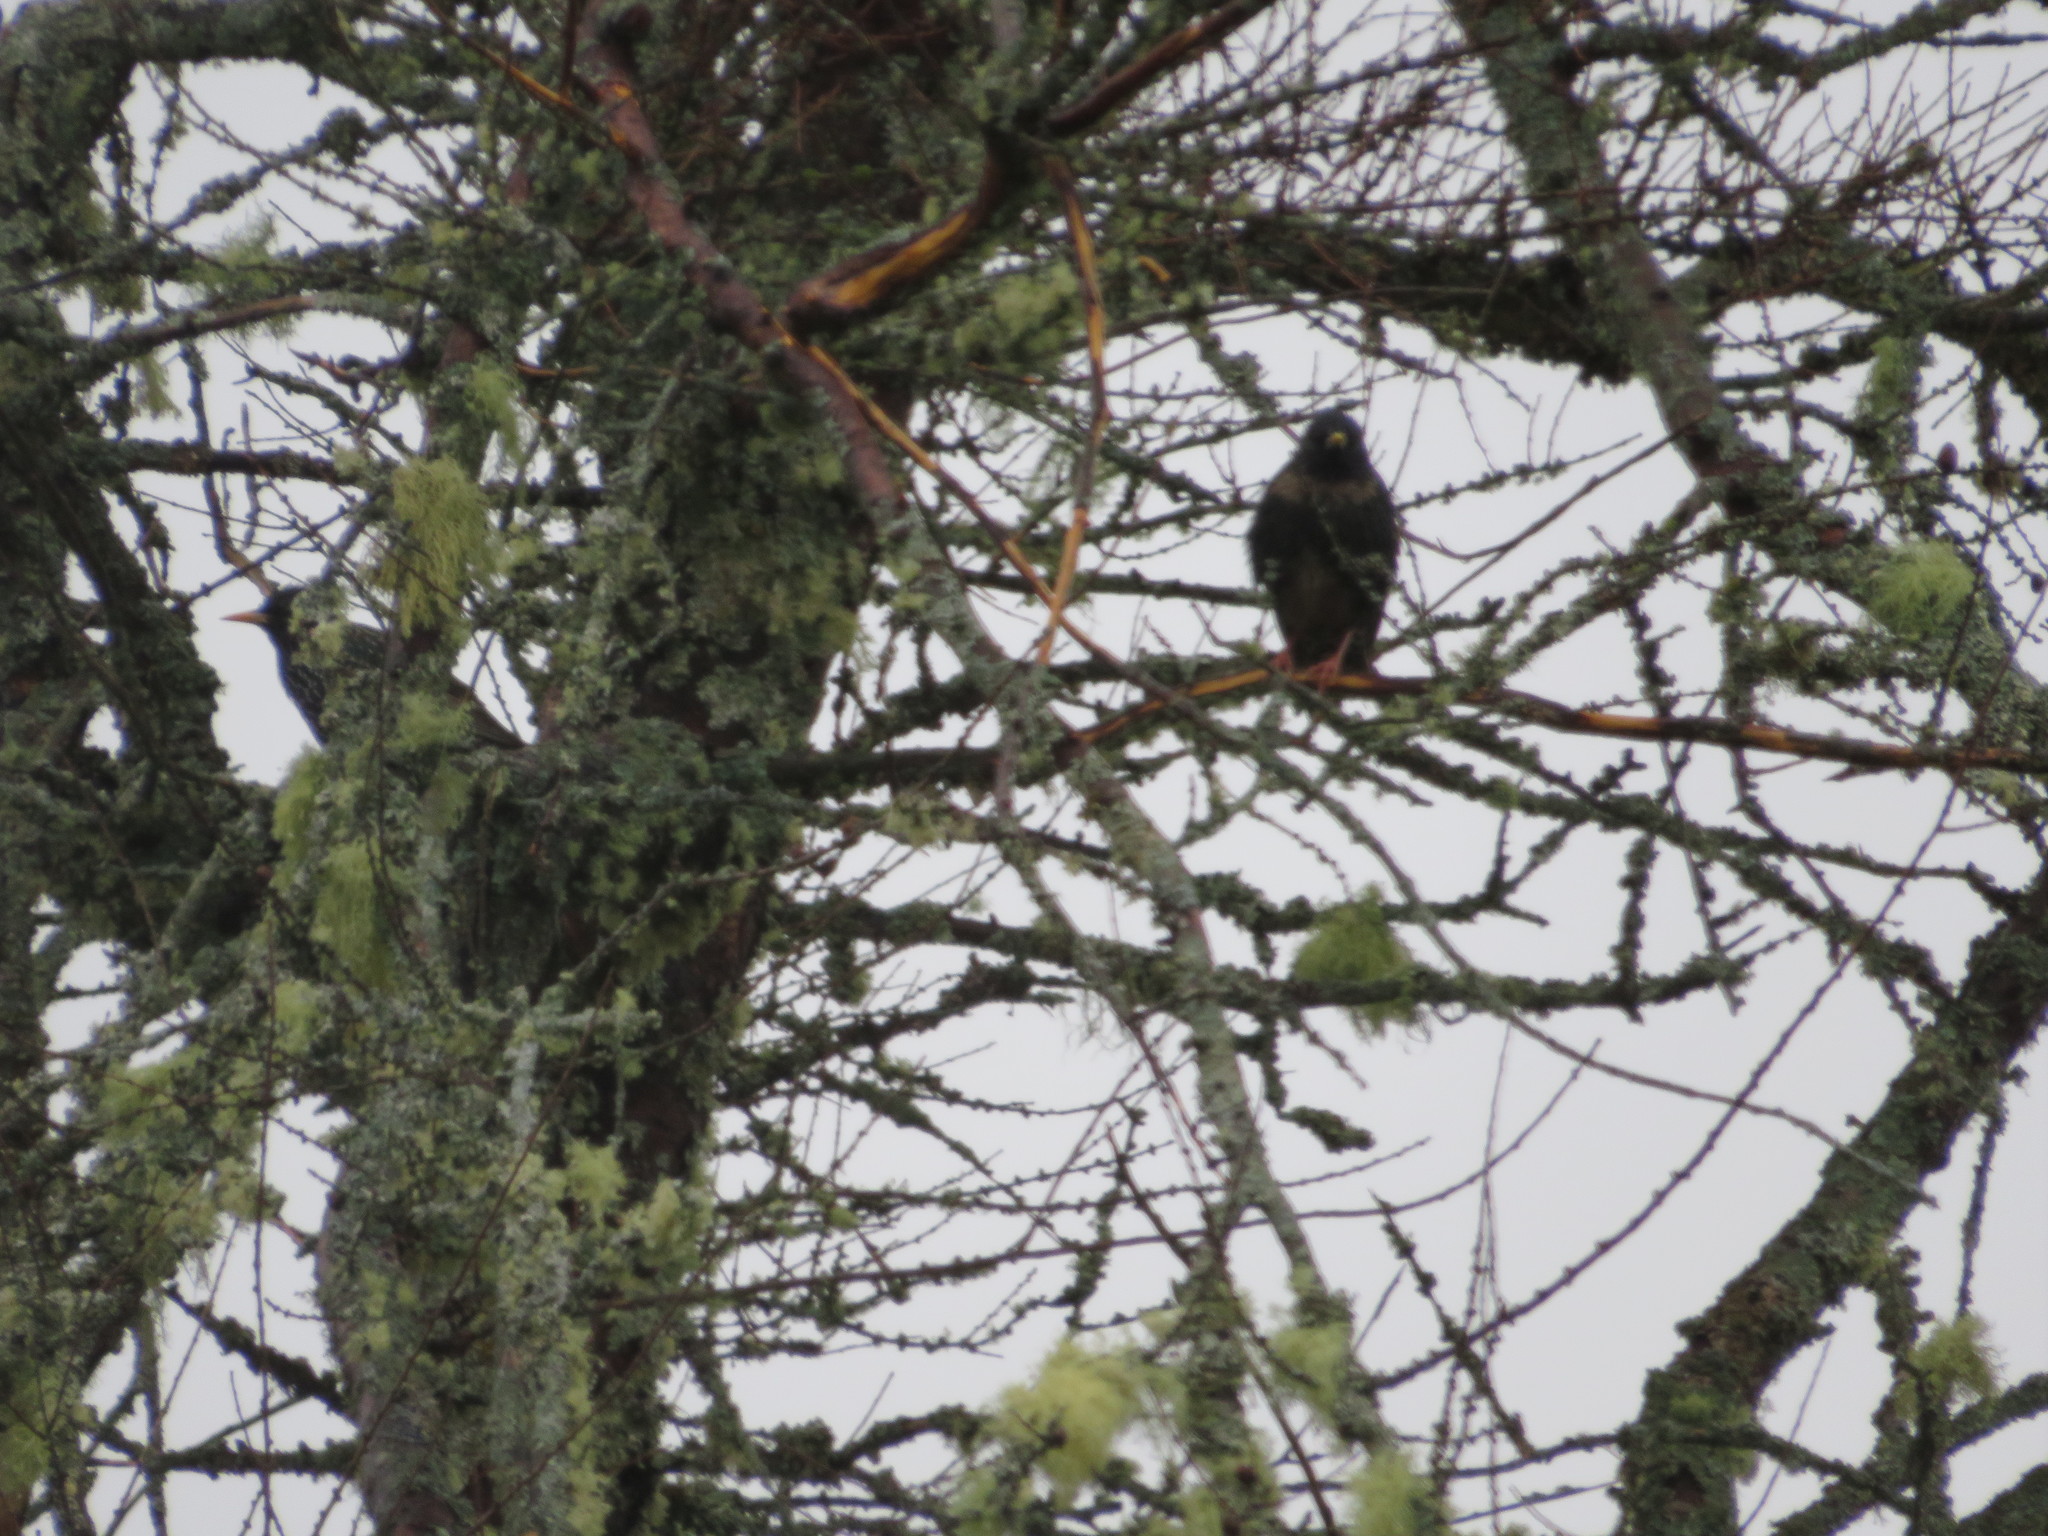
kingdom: Animalia
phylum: Chordata
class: Aves
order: Passeriformes
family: Sturnidae
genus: Sturnus
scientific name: Sturnus vulgaris
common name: Common starling
